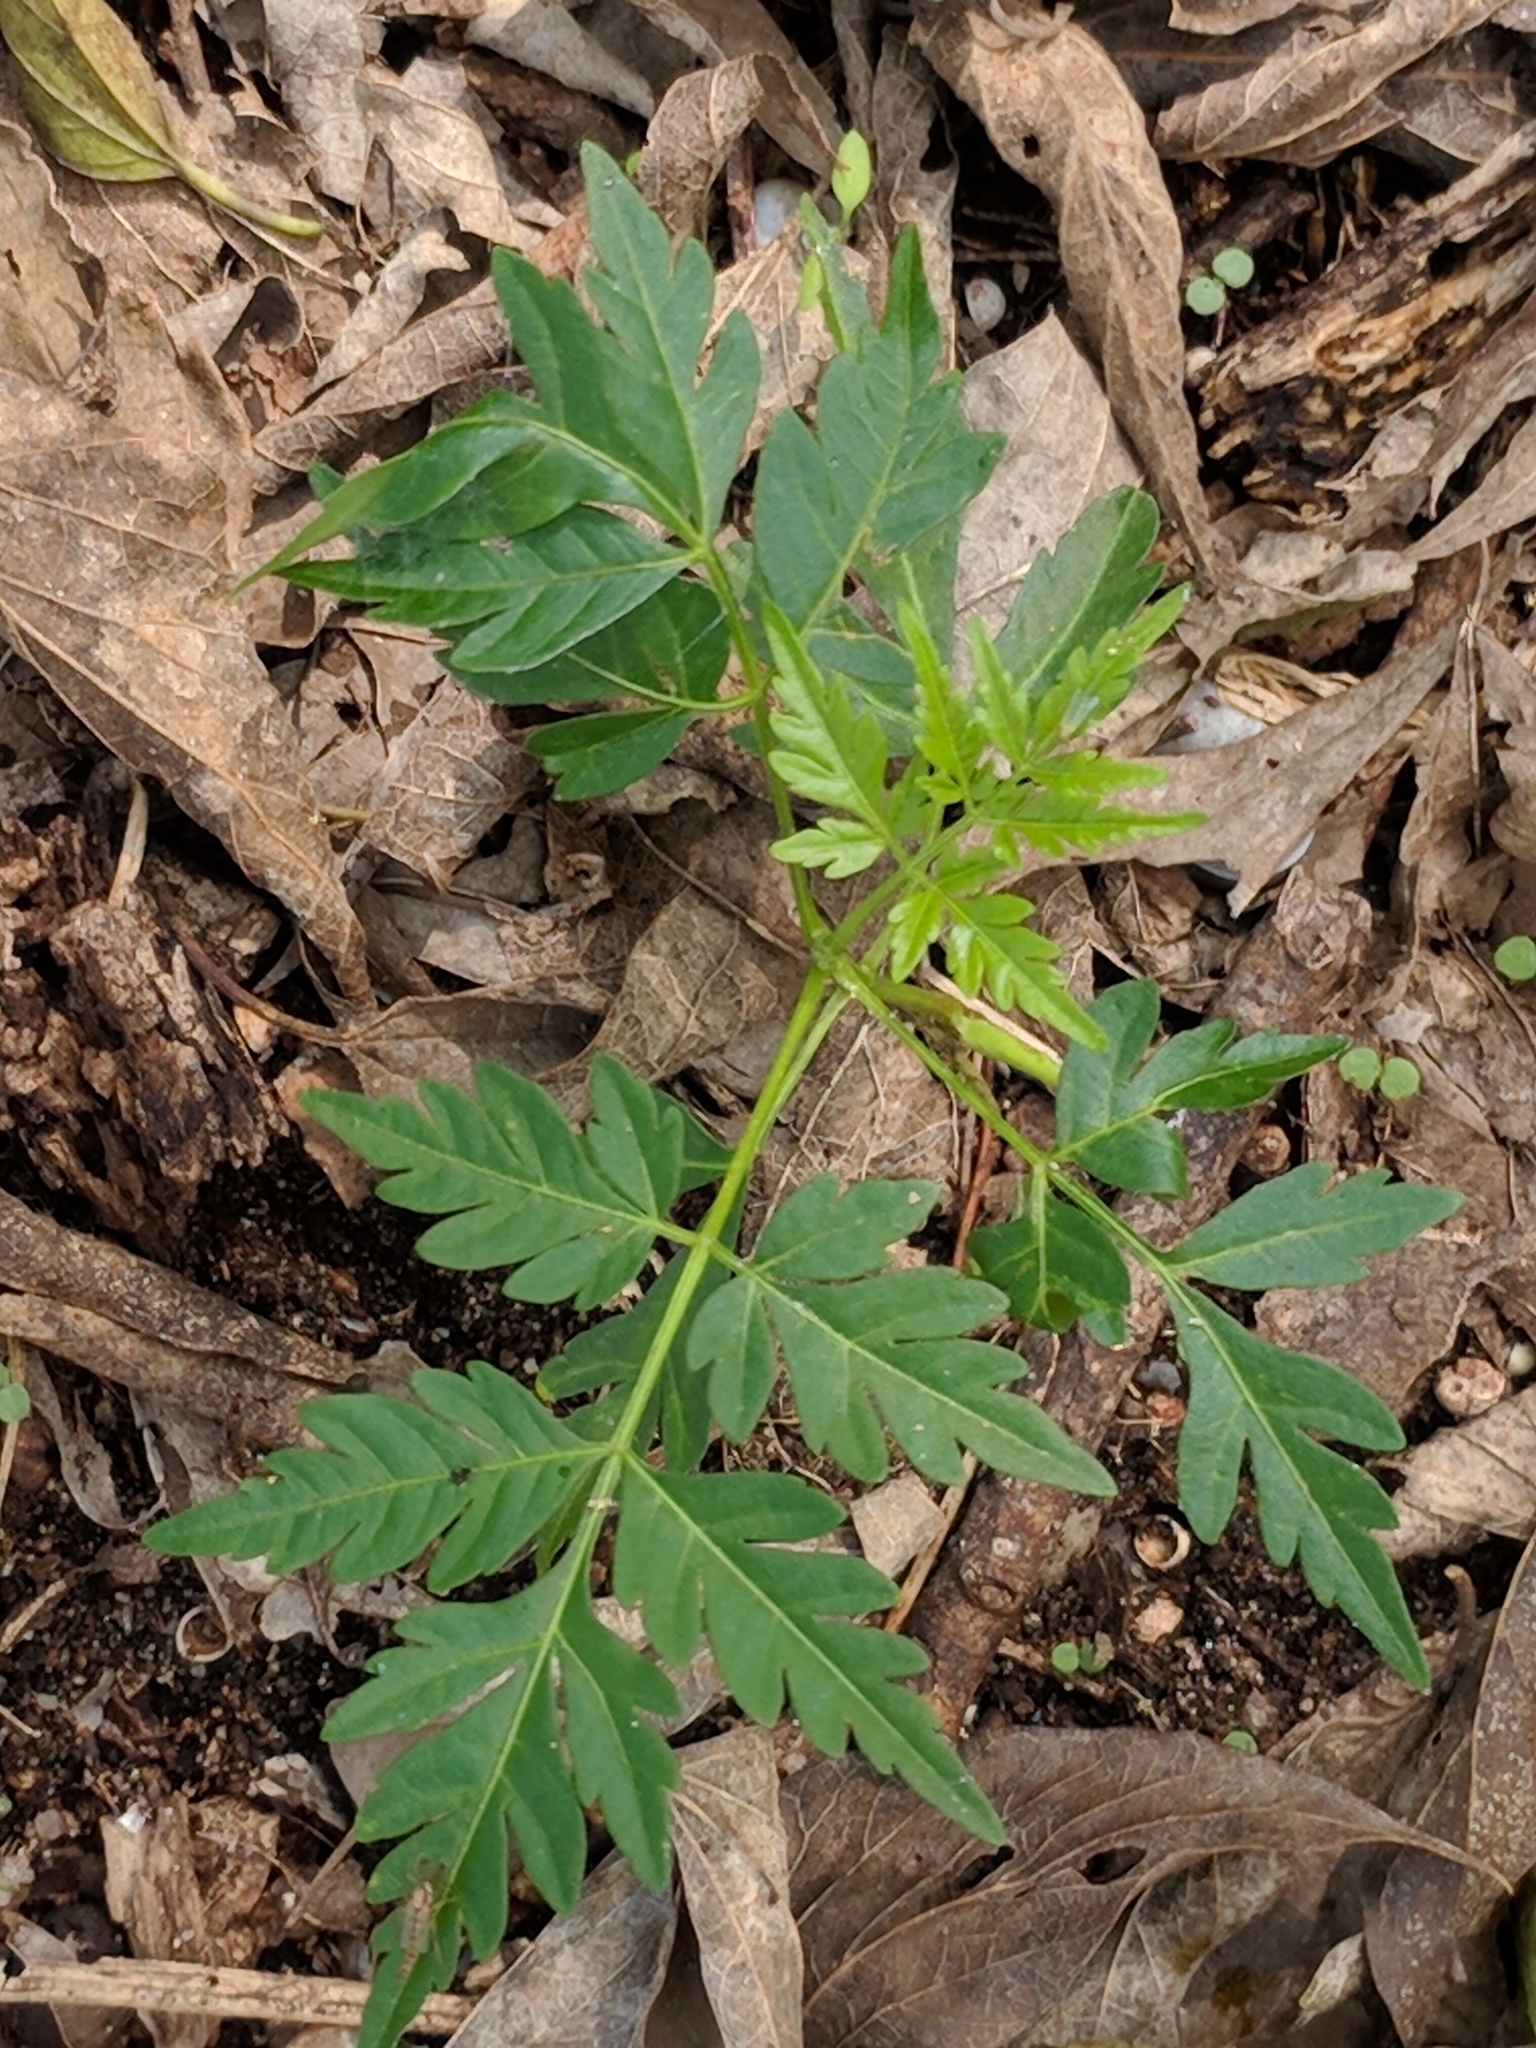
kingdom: Plantae
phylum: Tracheophyta
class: Magnoliopsida
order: Sapindales
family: Meliaceae
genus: Melia
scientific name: Melia azedarach
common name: Chinaberrytree
